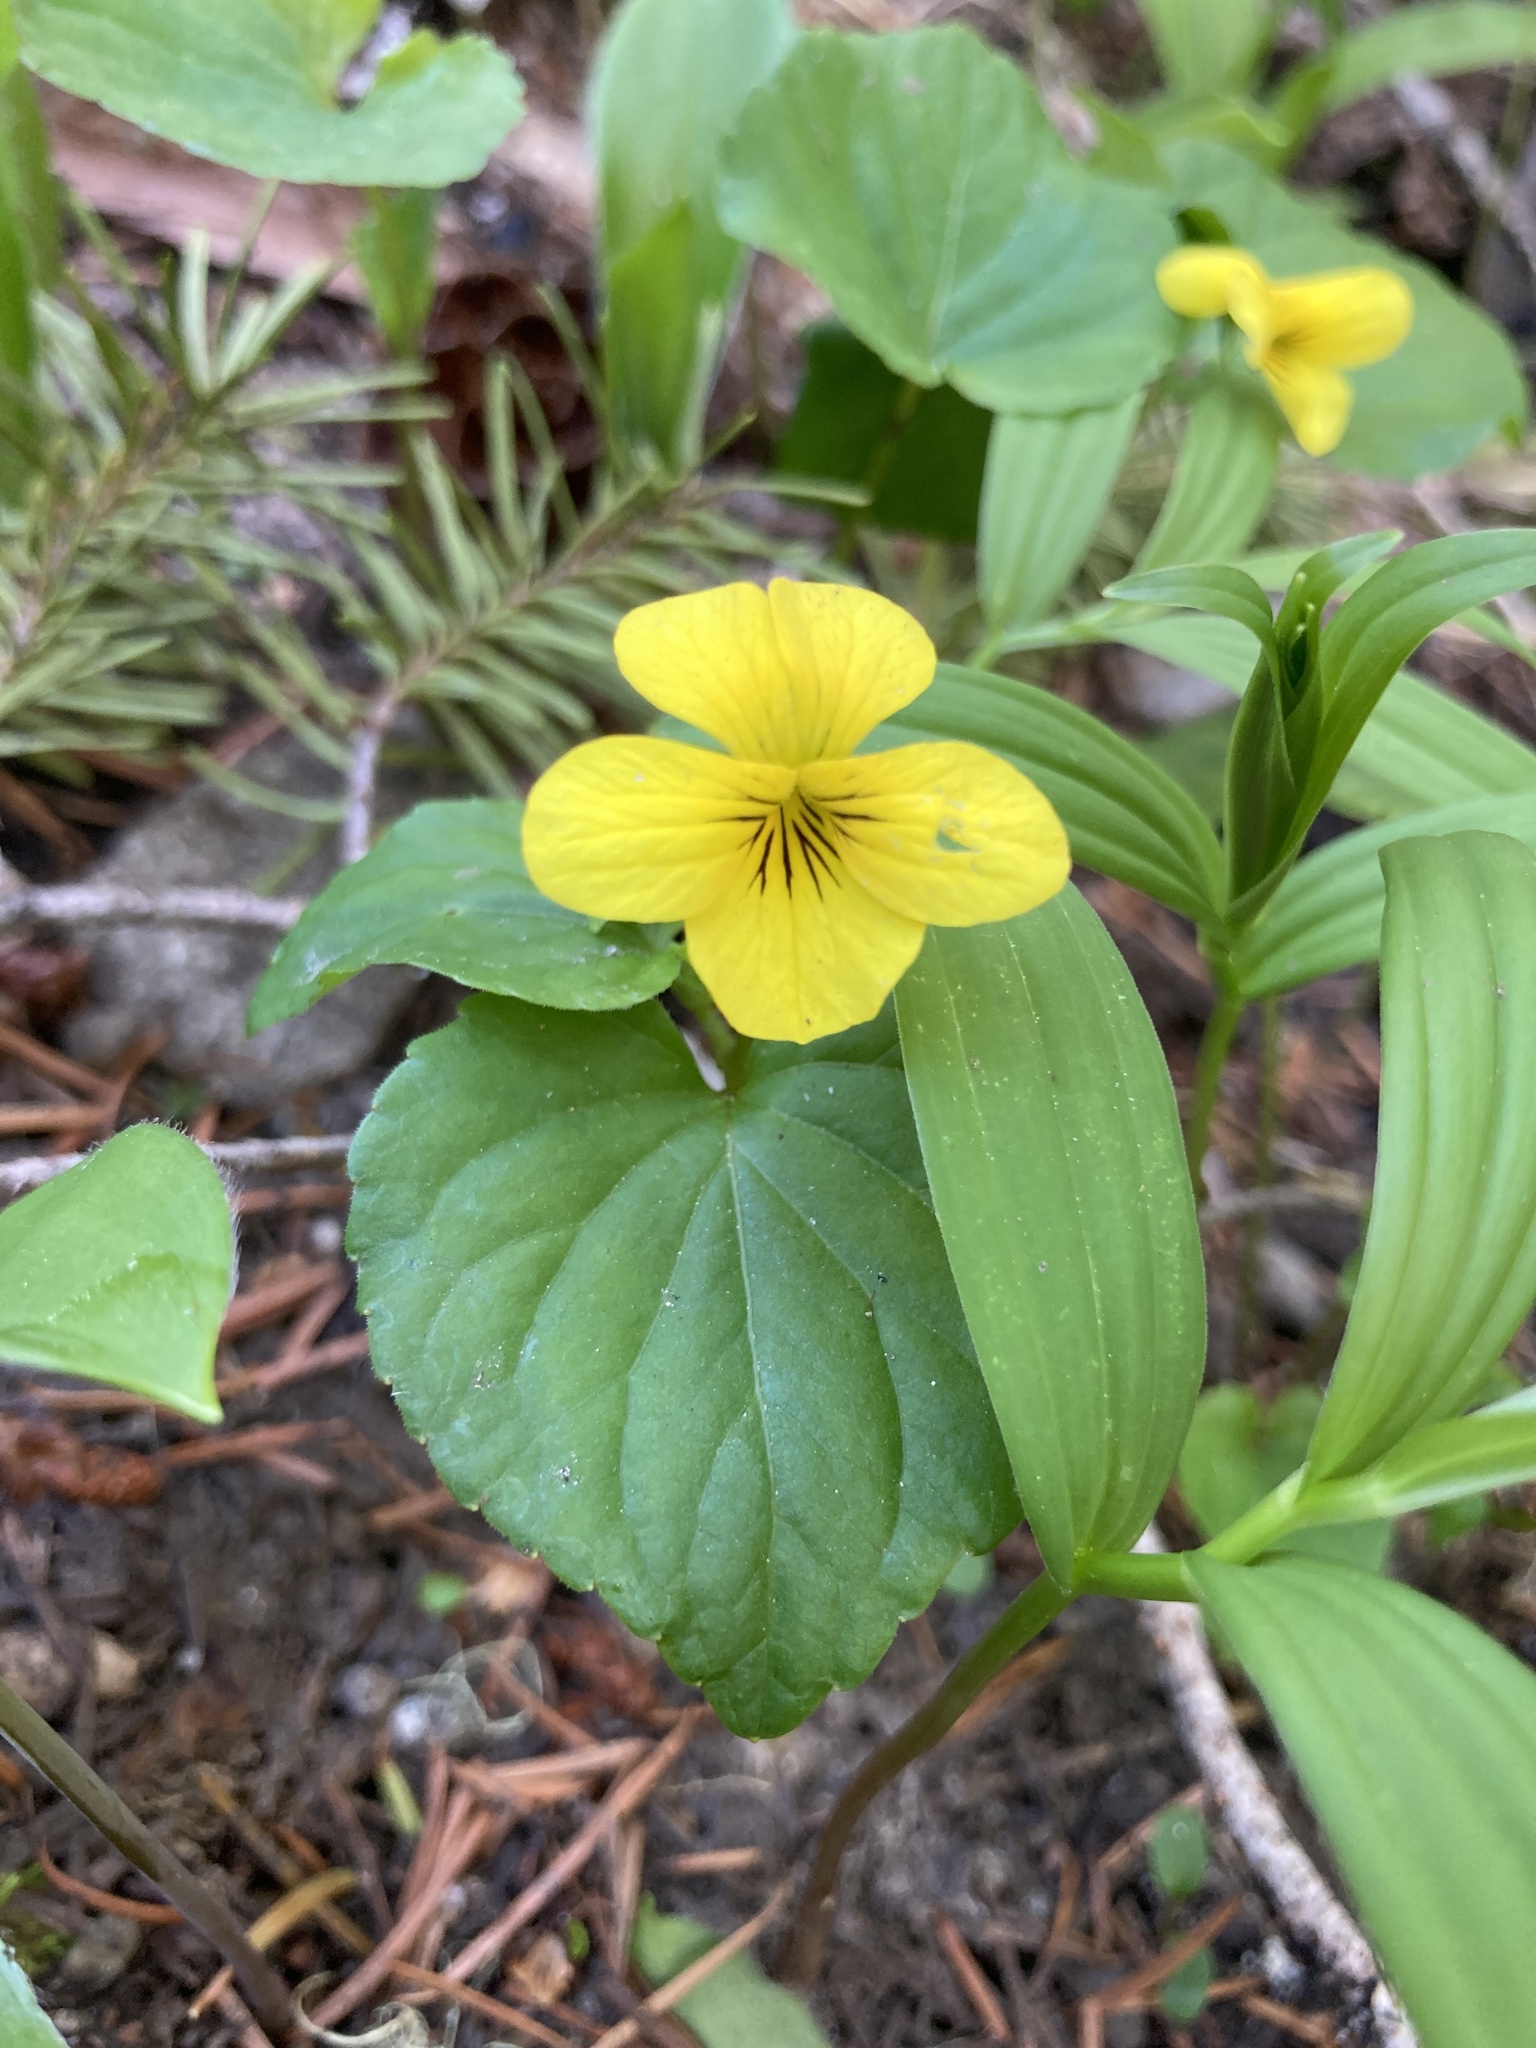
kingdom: Plantae
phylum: Tracheophyta
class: Magnoliopsida
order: Malpighiales
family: Violaceae
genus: Viola
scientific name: Viola glabella
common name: Stream violet
